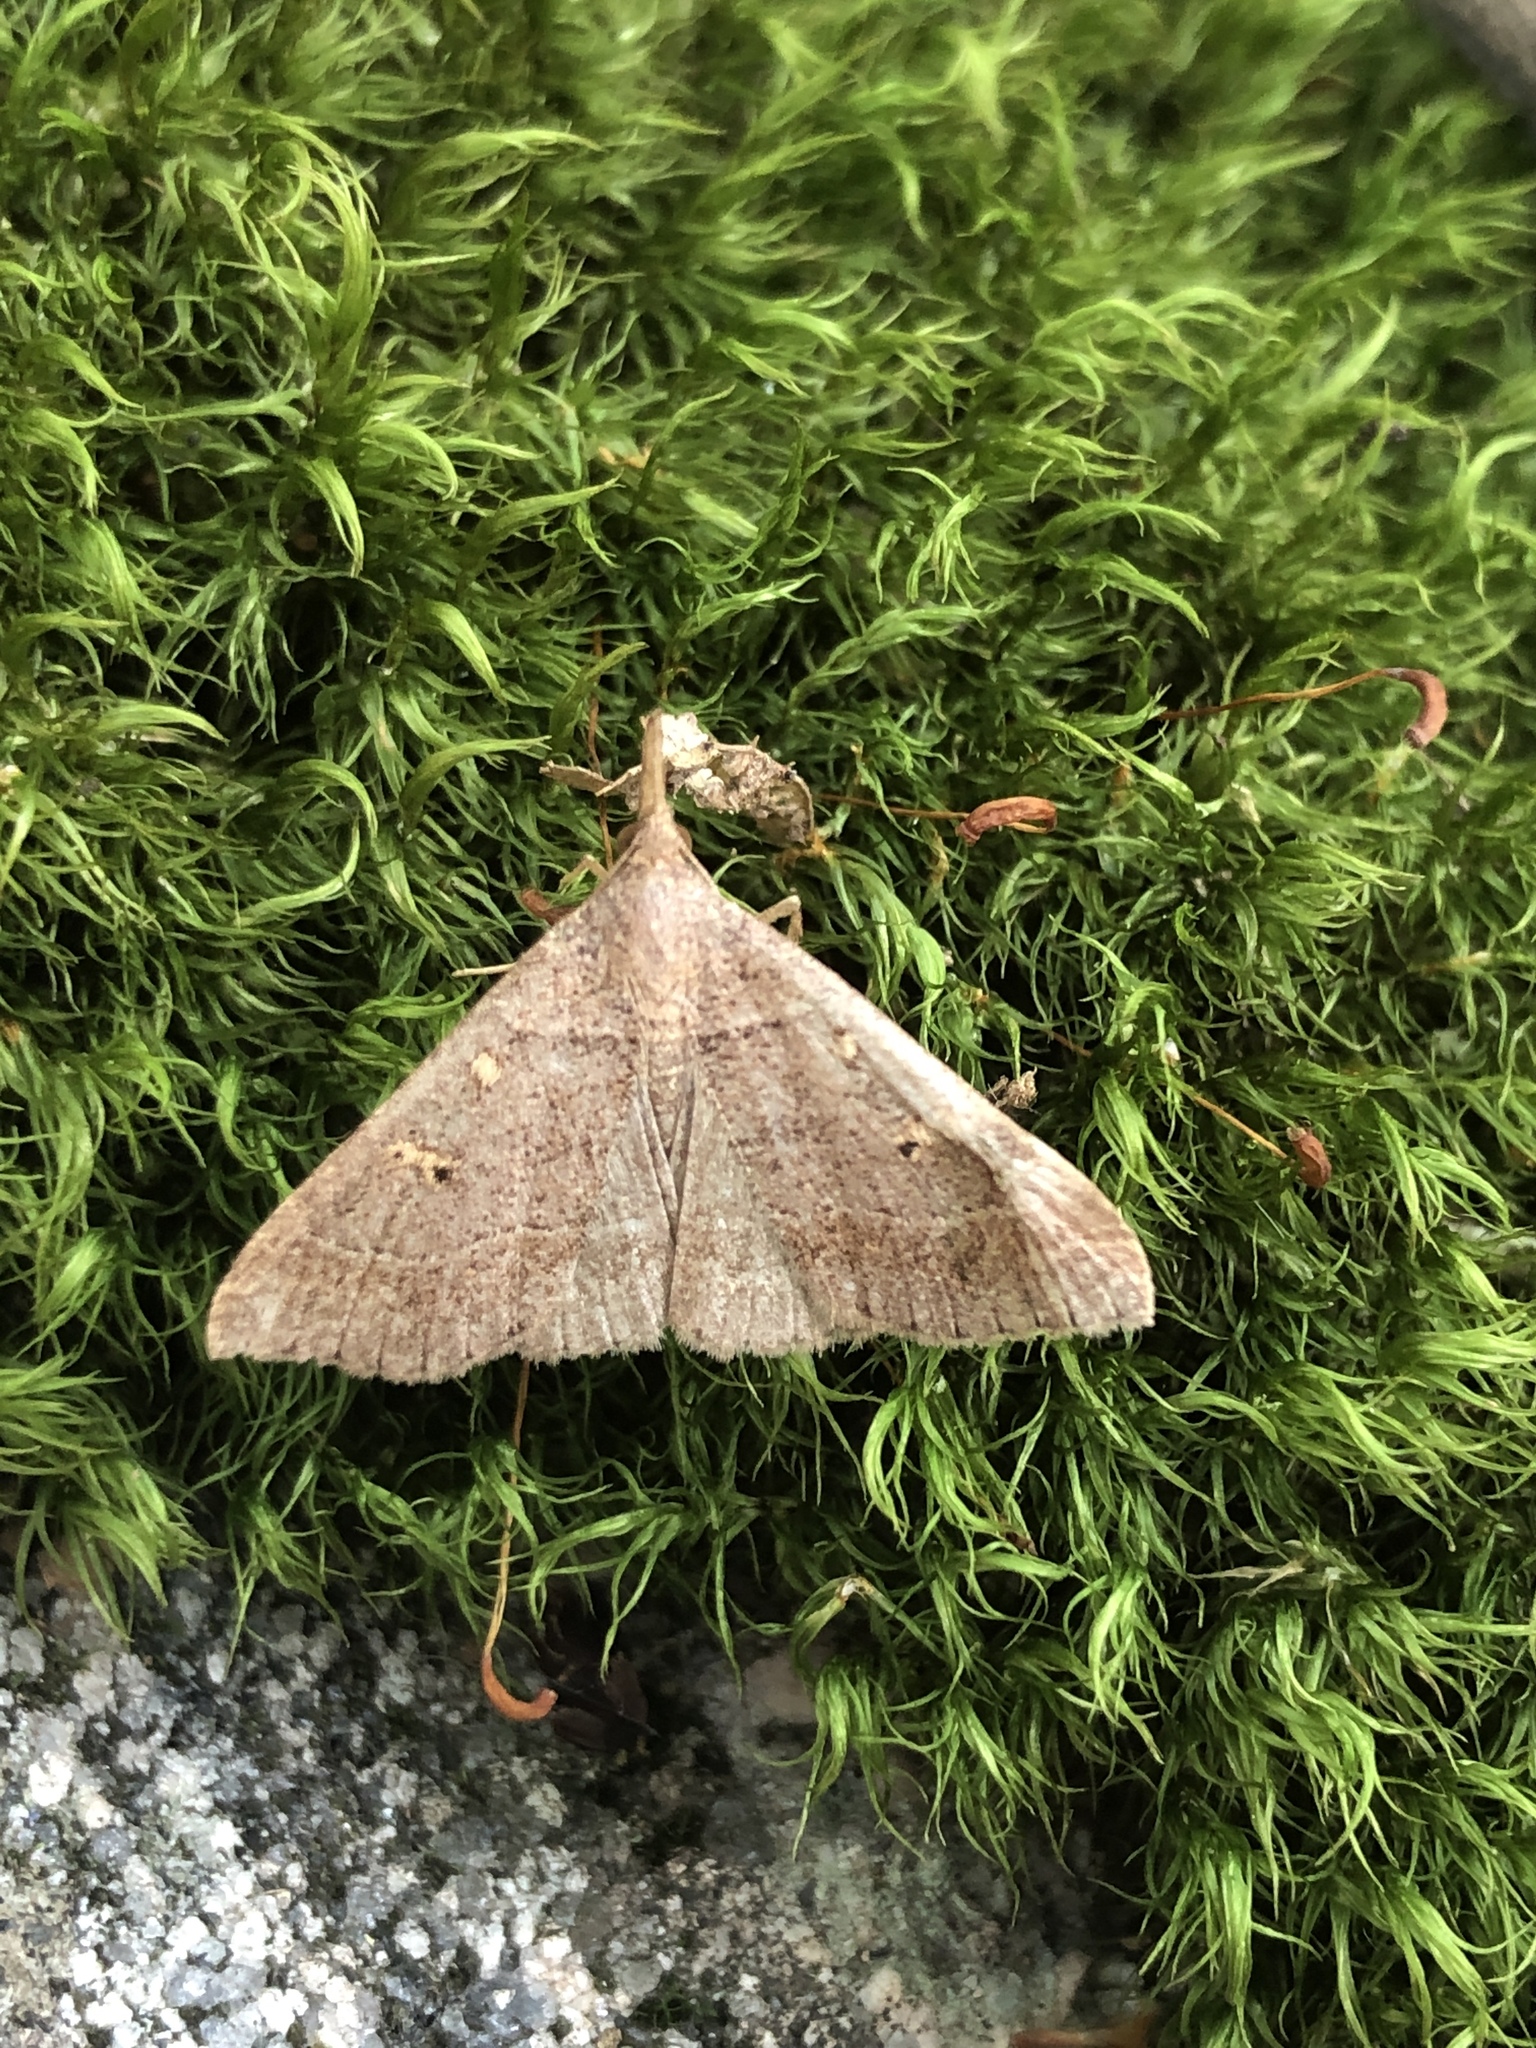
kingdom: Animalia
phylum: Arthropoda
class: Insecta
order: Lepidoptera
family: Erebidae
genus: Renia
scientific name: Renia flavipunctalis
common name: Yellow-spotted renia moth
